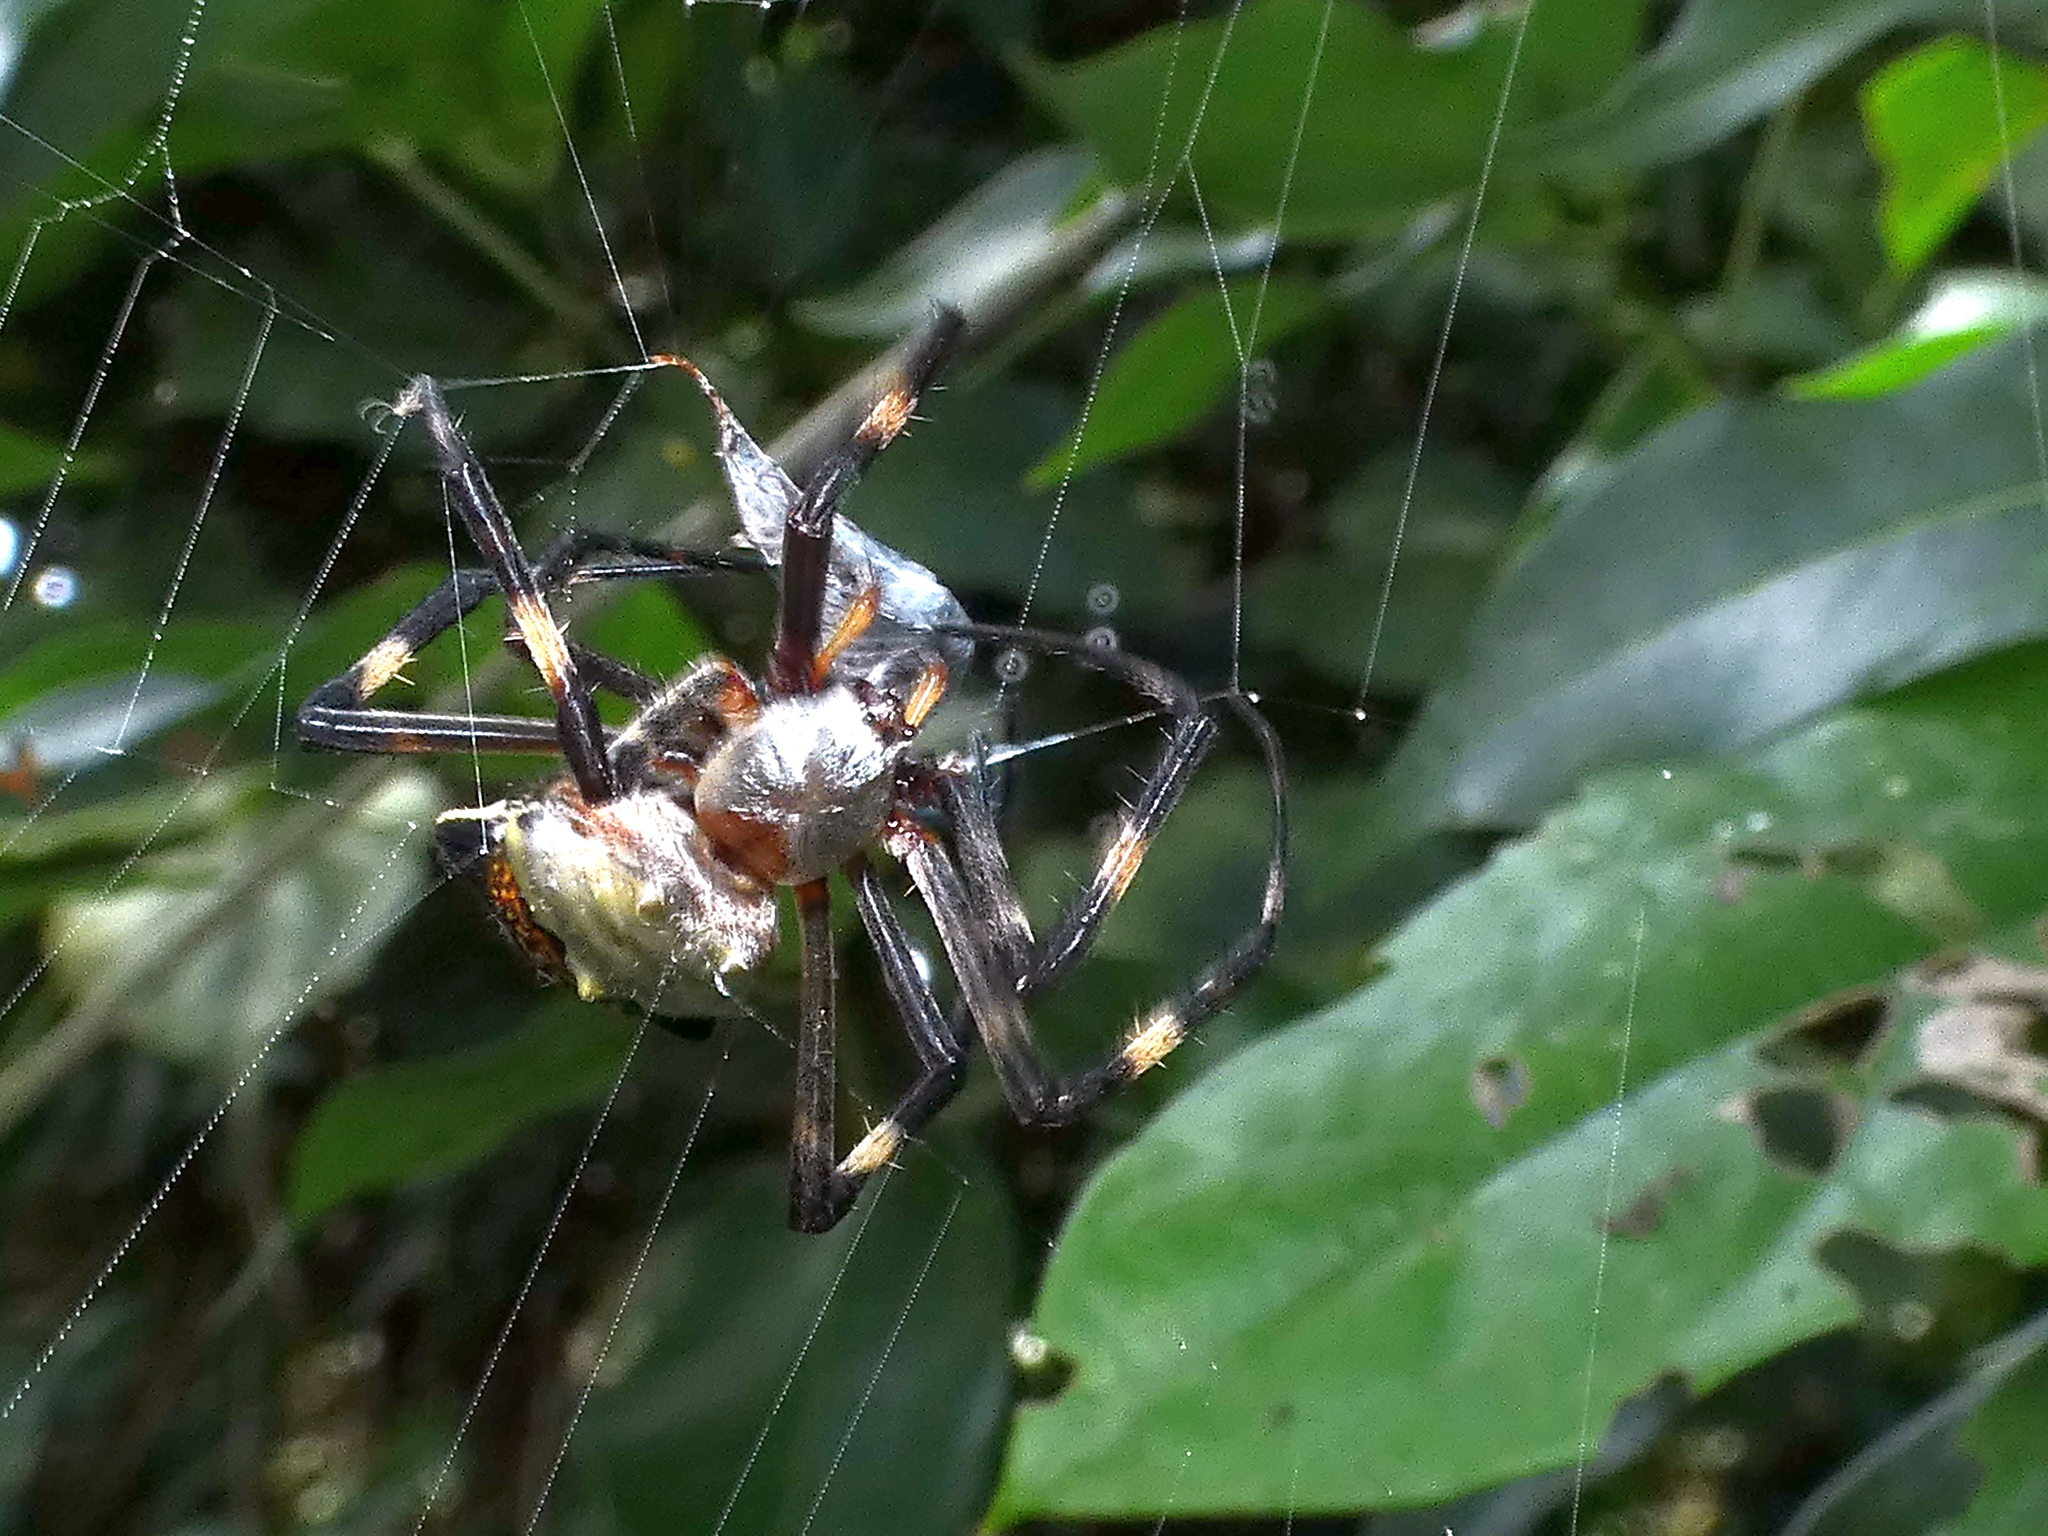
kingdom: Animalia
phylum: Arthropoda
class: Arachnida
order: Araneae
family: Araneidae
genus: Argiope
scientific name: Argiope argentata
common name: Orb weavers
